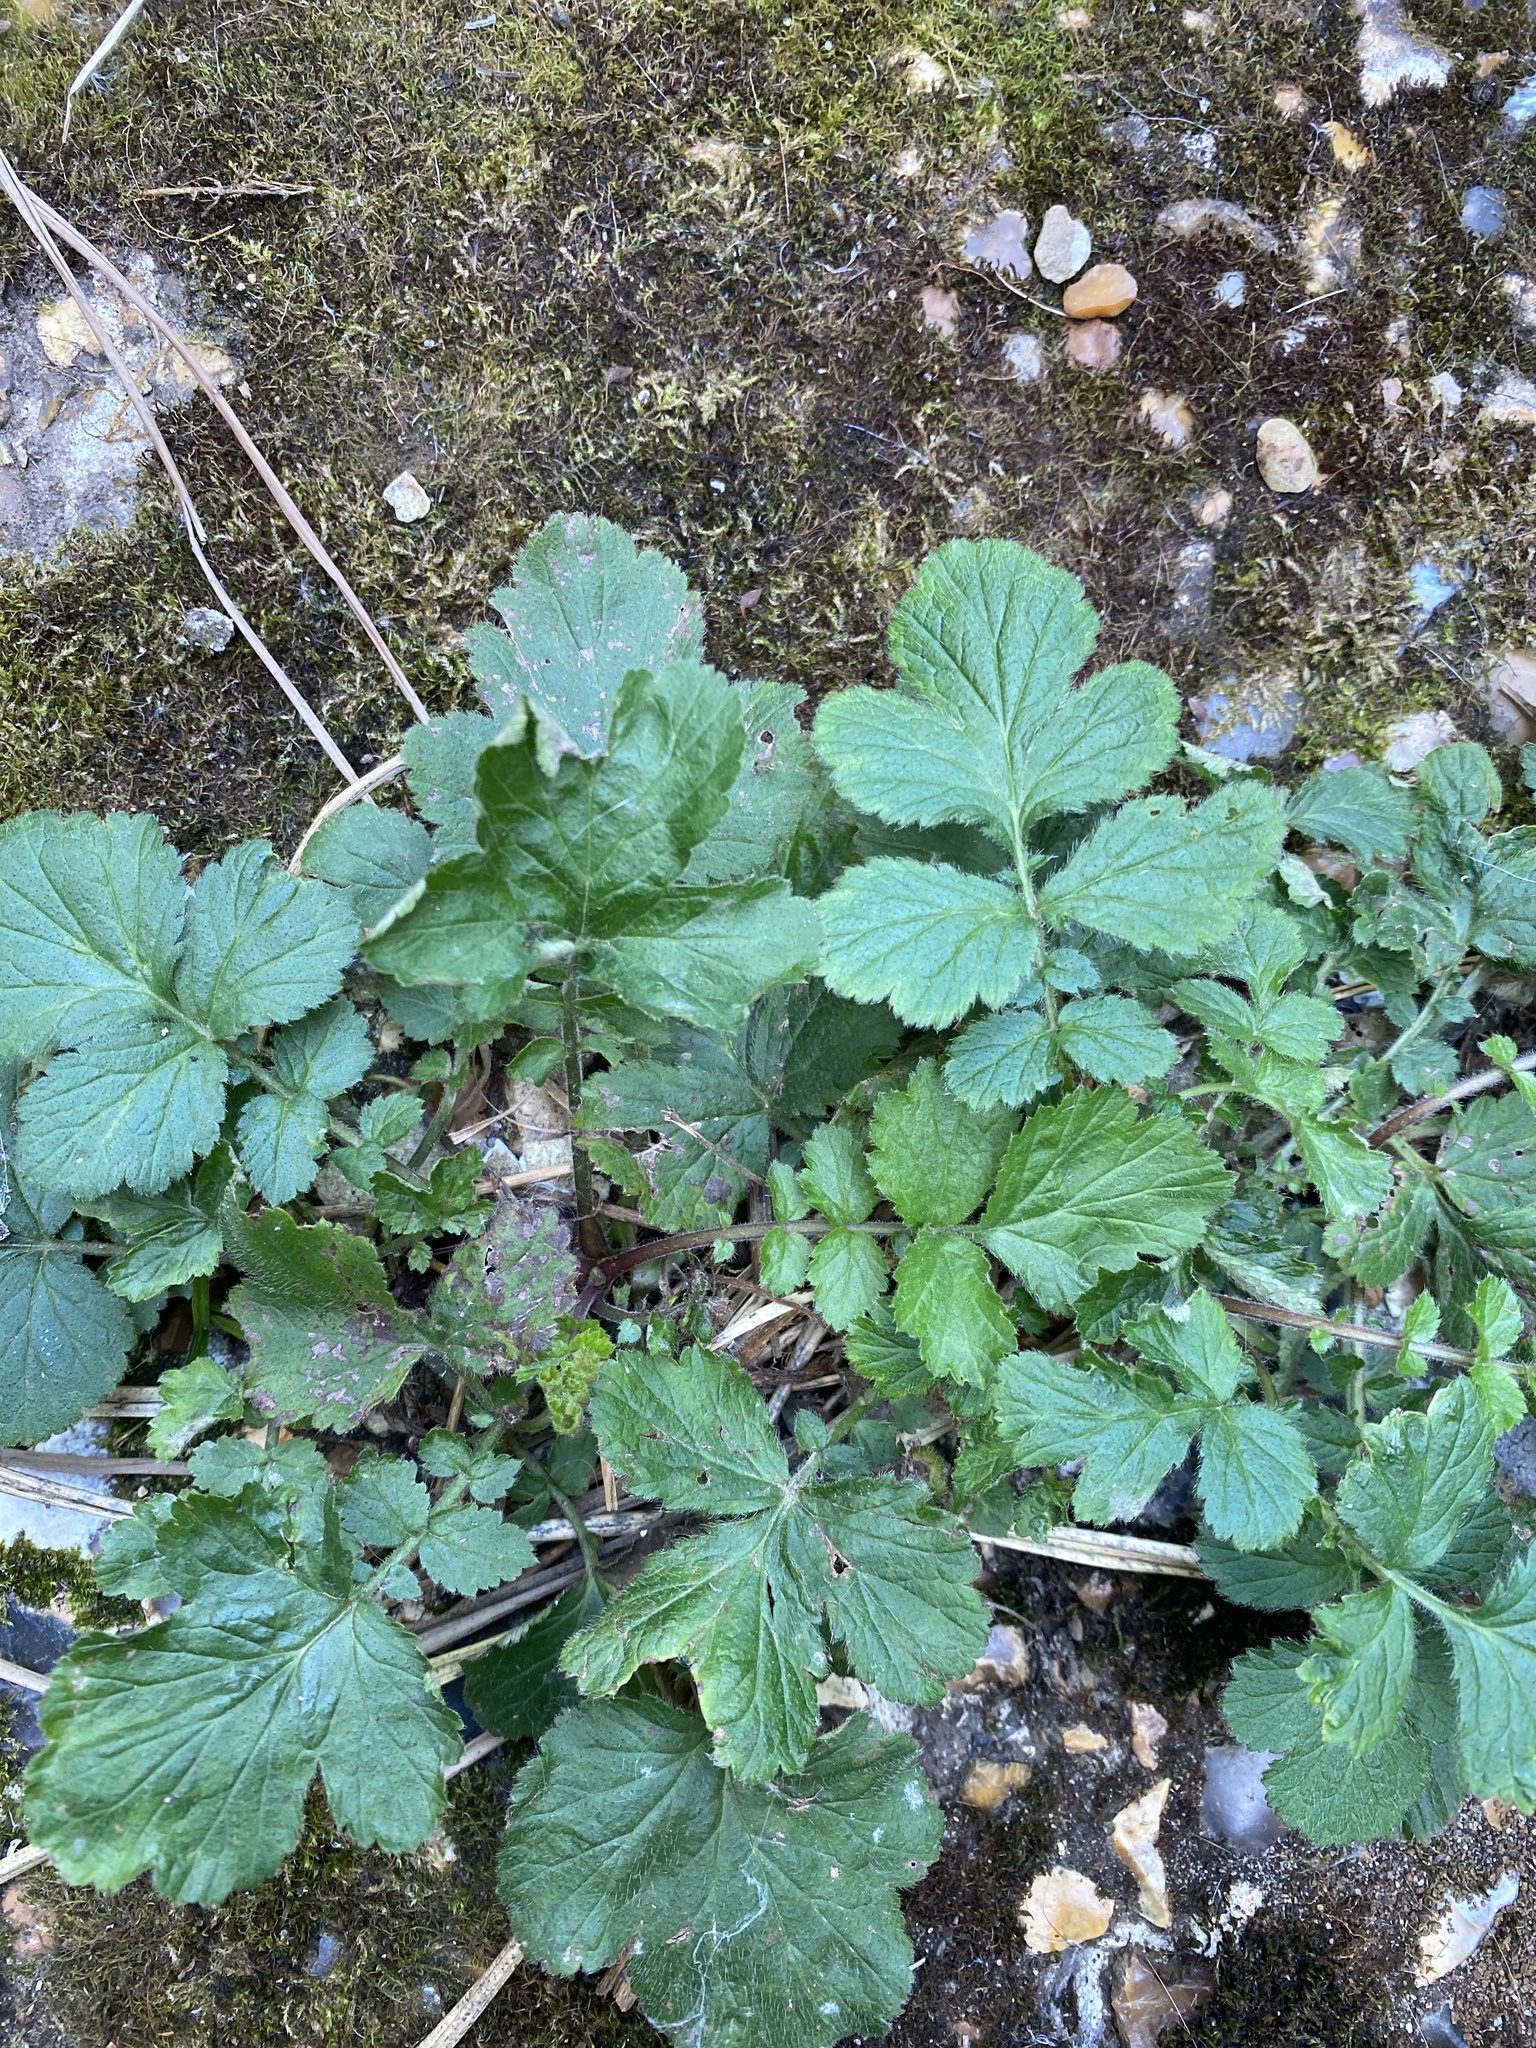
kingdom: Plantae
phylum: Tracheophyta
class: Magnoliopsida
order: Rosales
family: Rosaceae
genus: Geum
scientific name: Geum urbanum
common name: Wood avens
